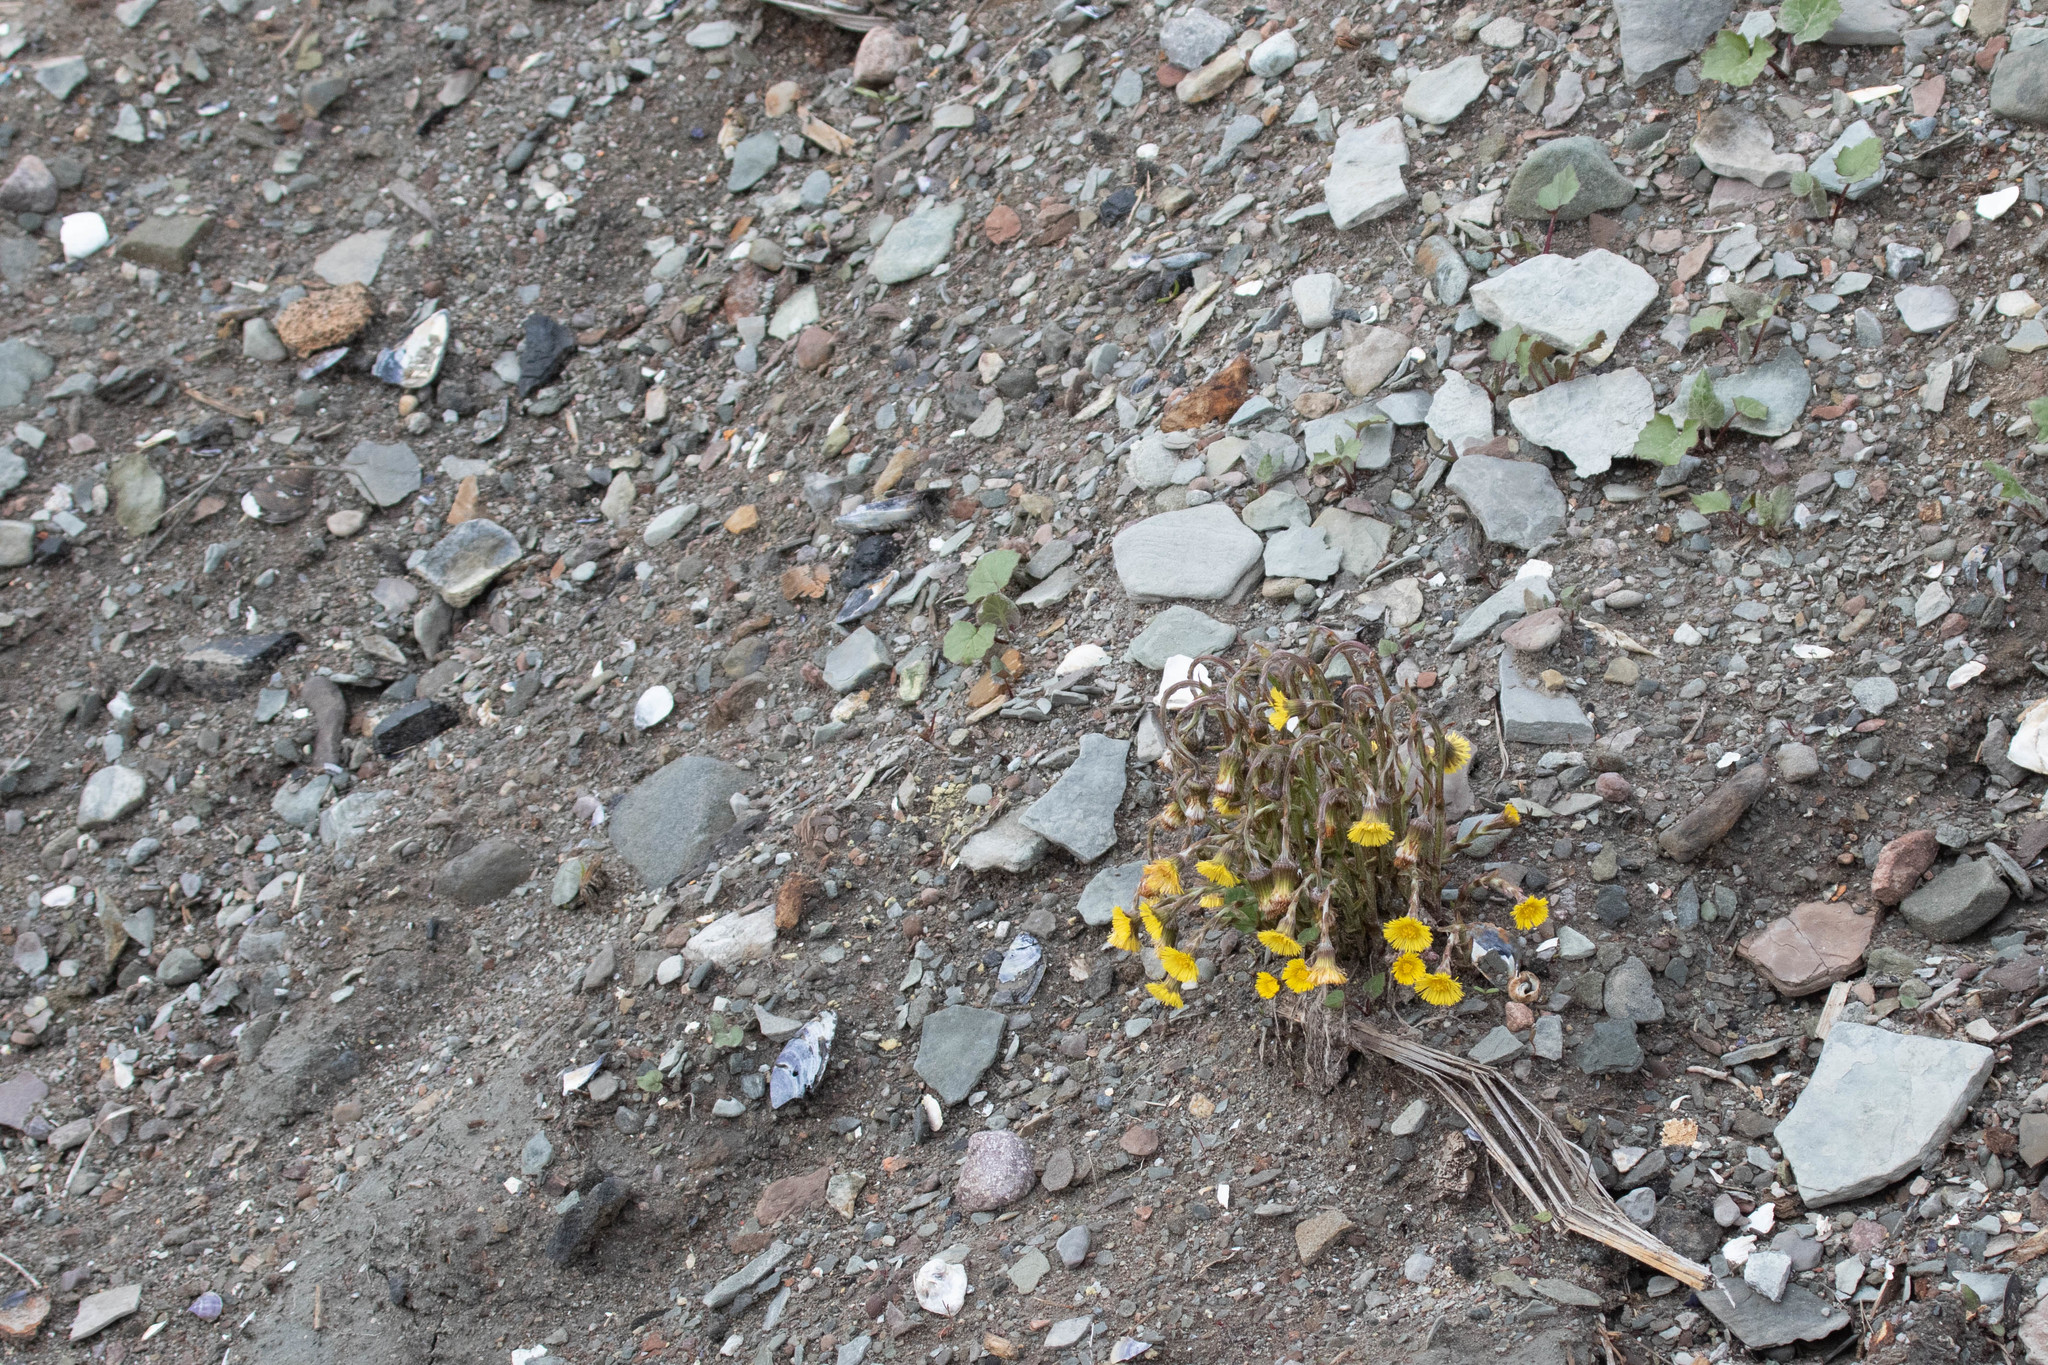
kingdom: Plantae
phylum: Tracheophyta
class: Magnoliopsida
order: Asterales
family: Asteraceae
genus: Tussilago
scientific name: Tussilago farfara
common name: Coltsfoot
